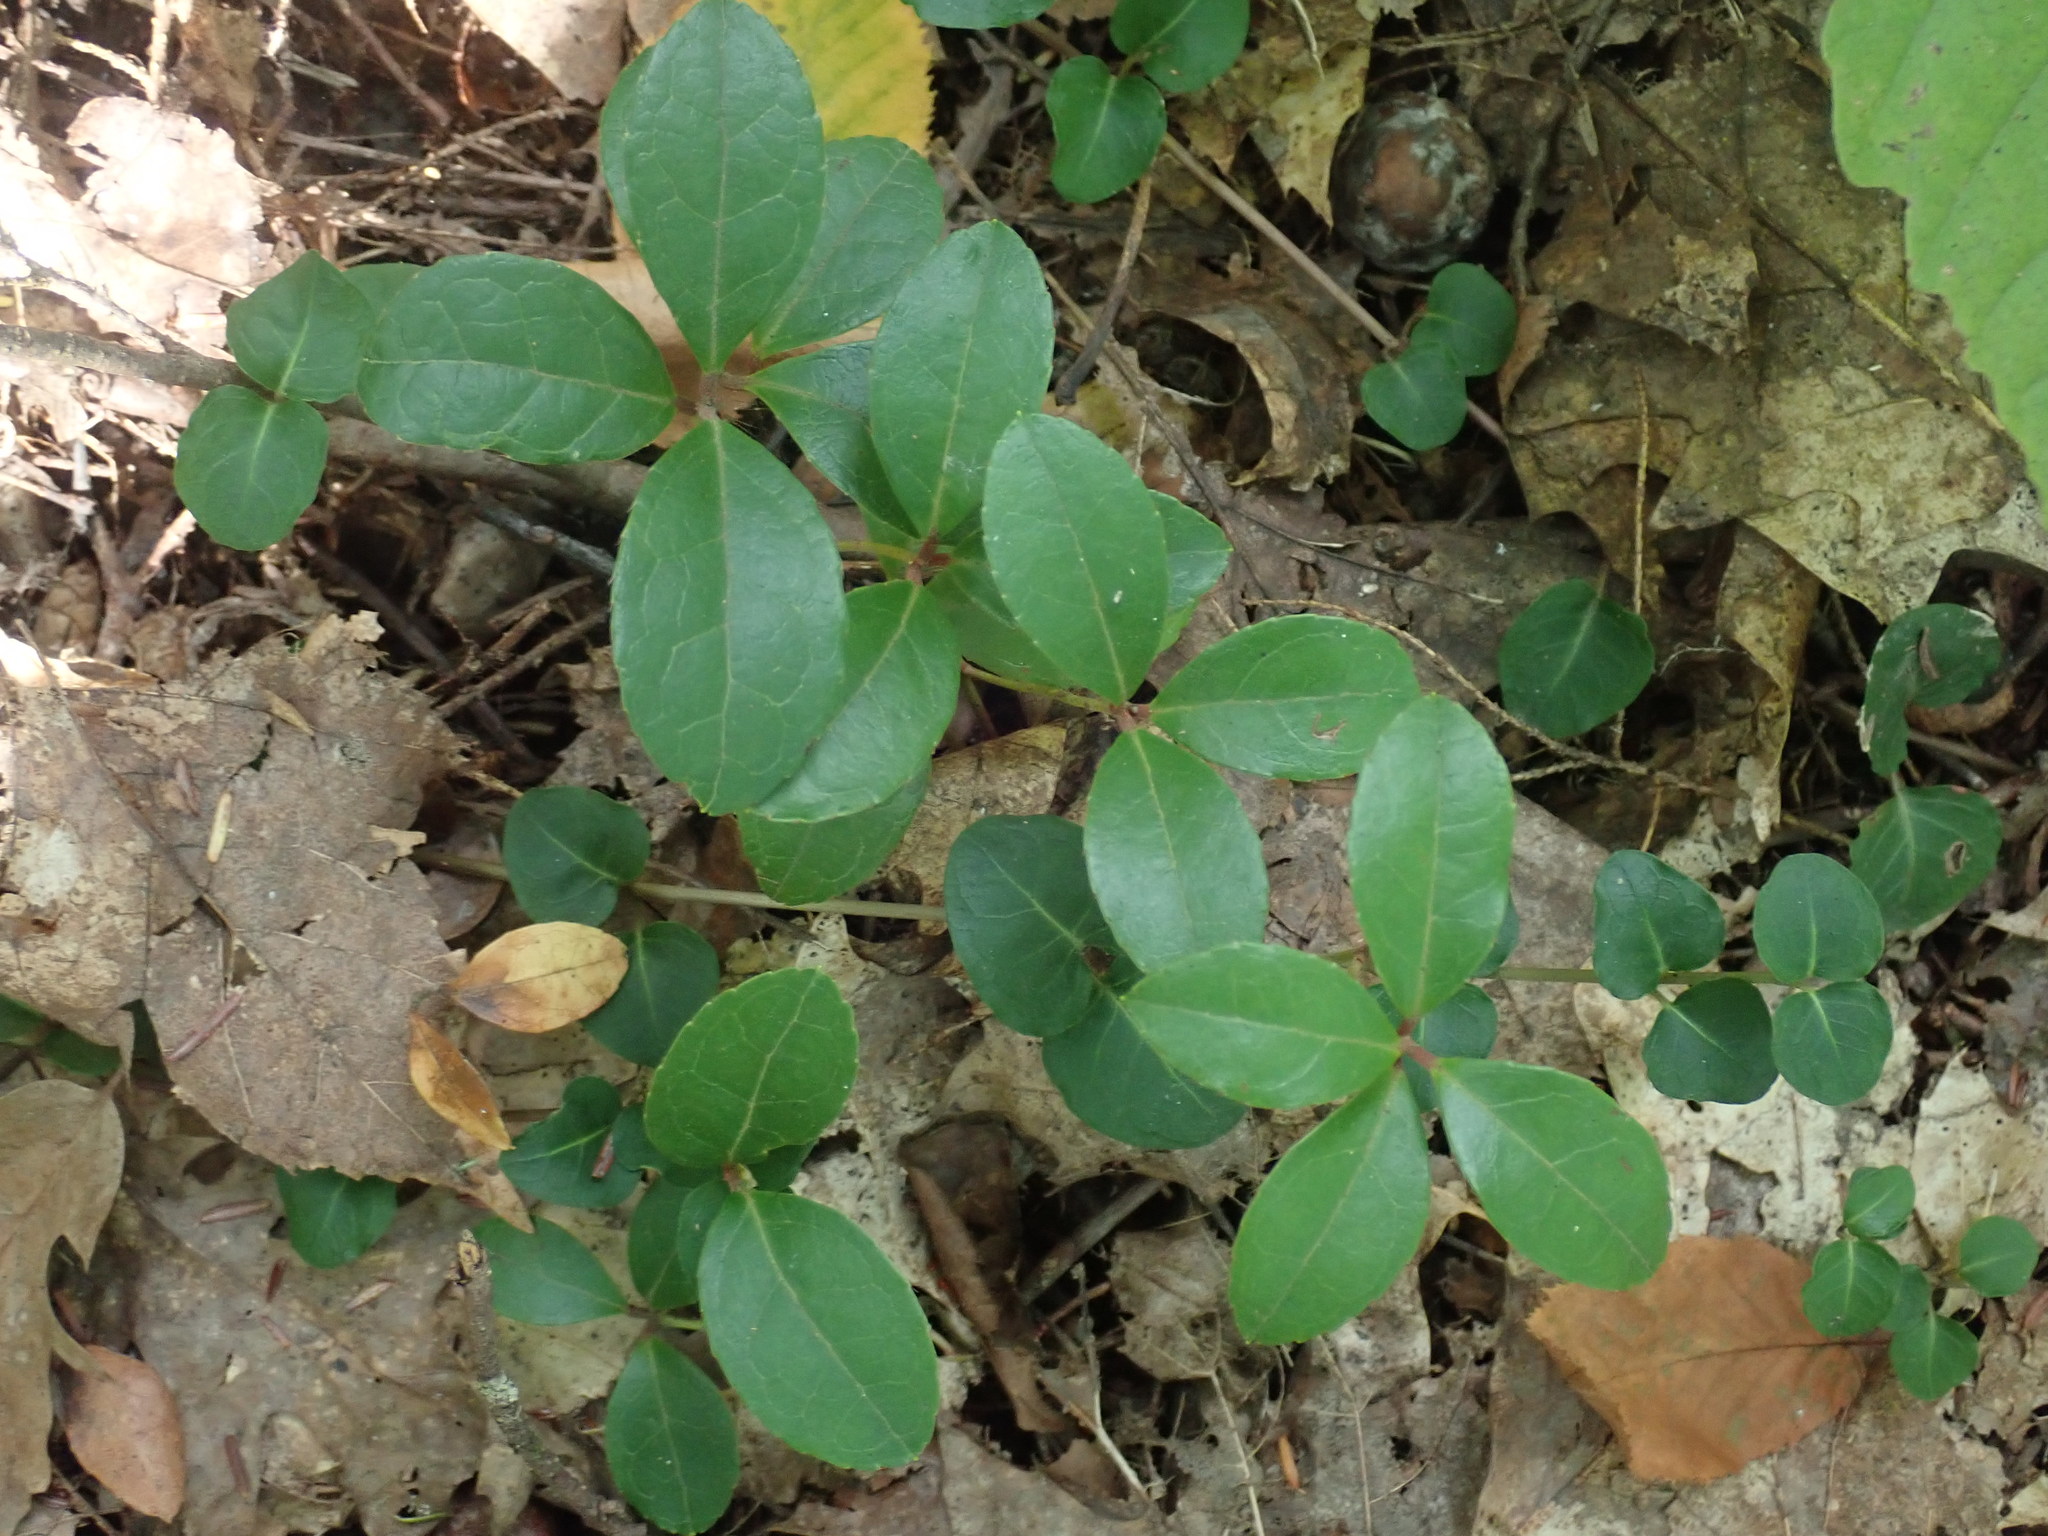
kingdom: Plantae
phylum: Tracheophyta
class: Magnoliopsida
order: Ericales
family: Ericaceae
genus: Gaultheria
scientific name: Gaultheria procumbens
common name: Checkerberry
